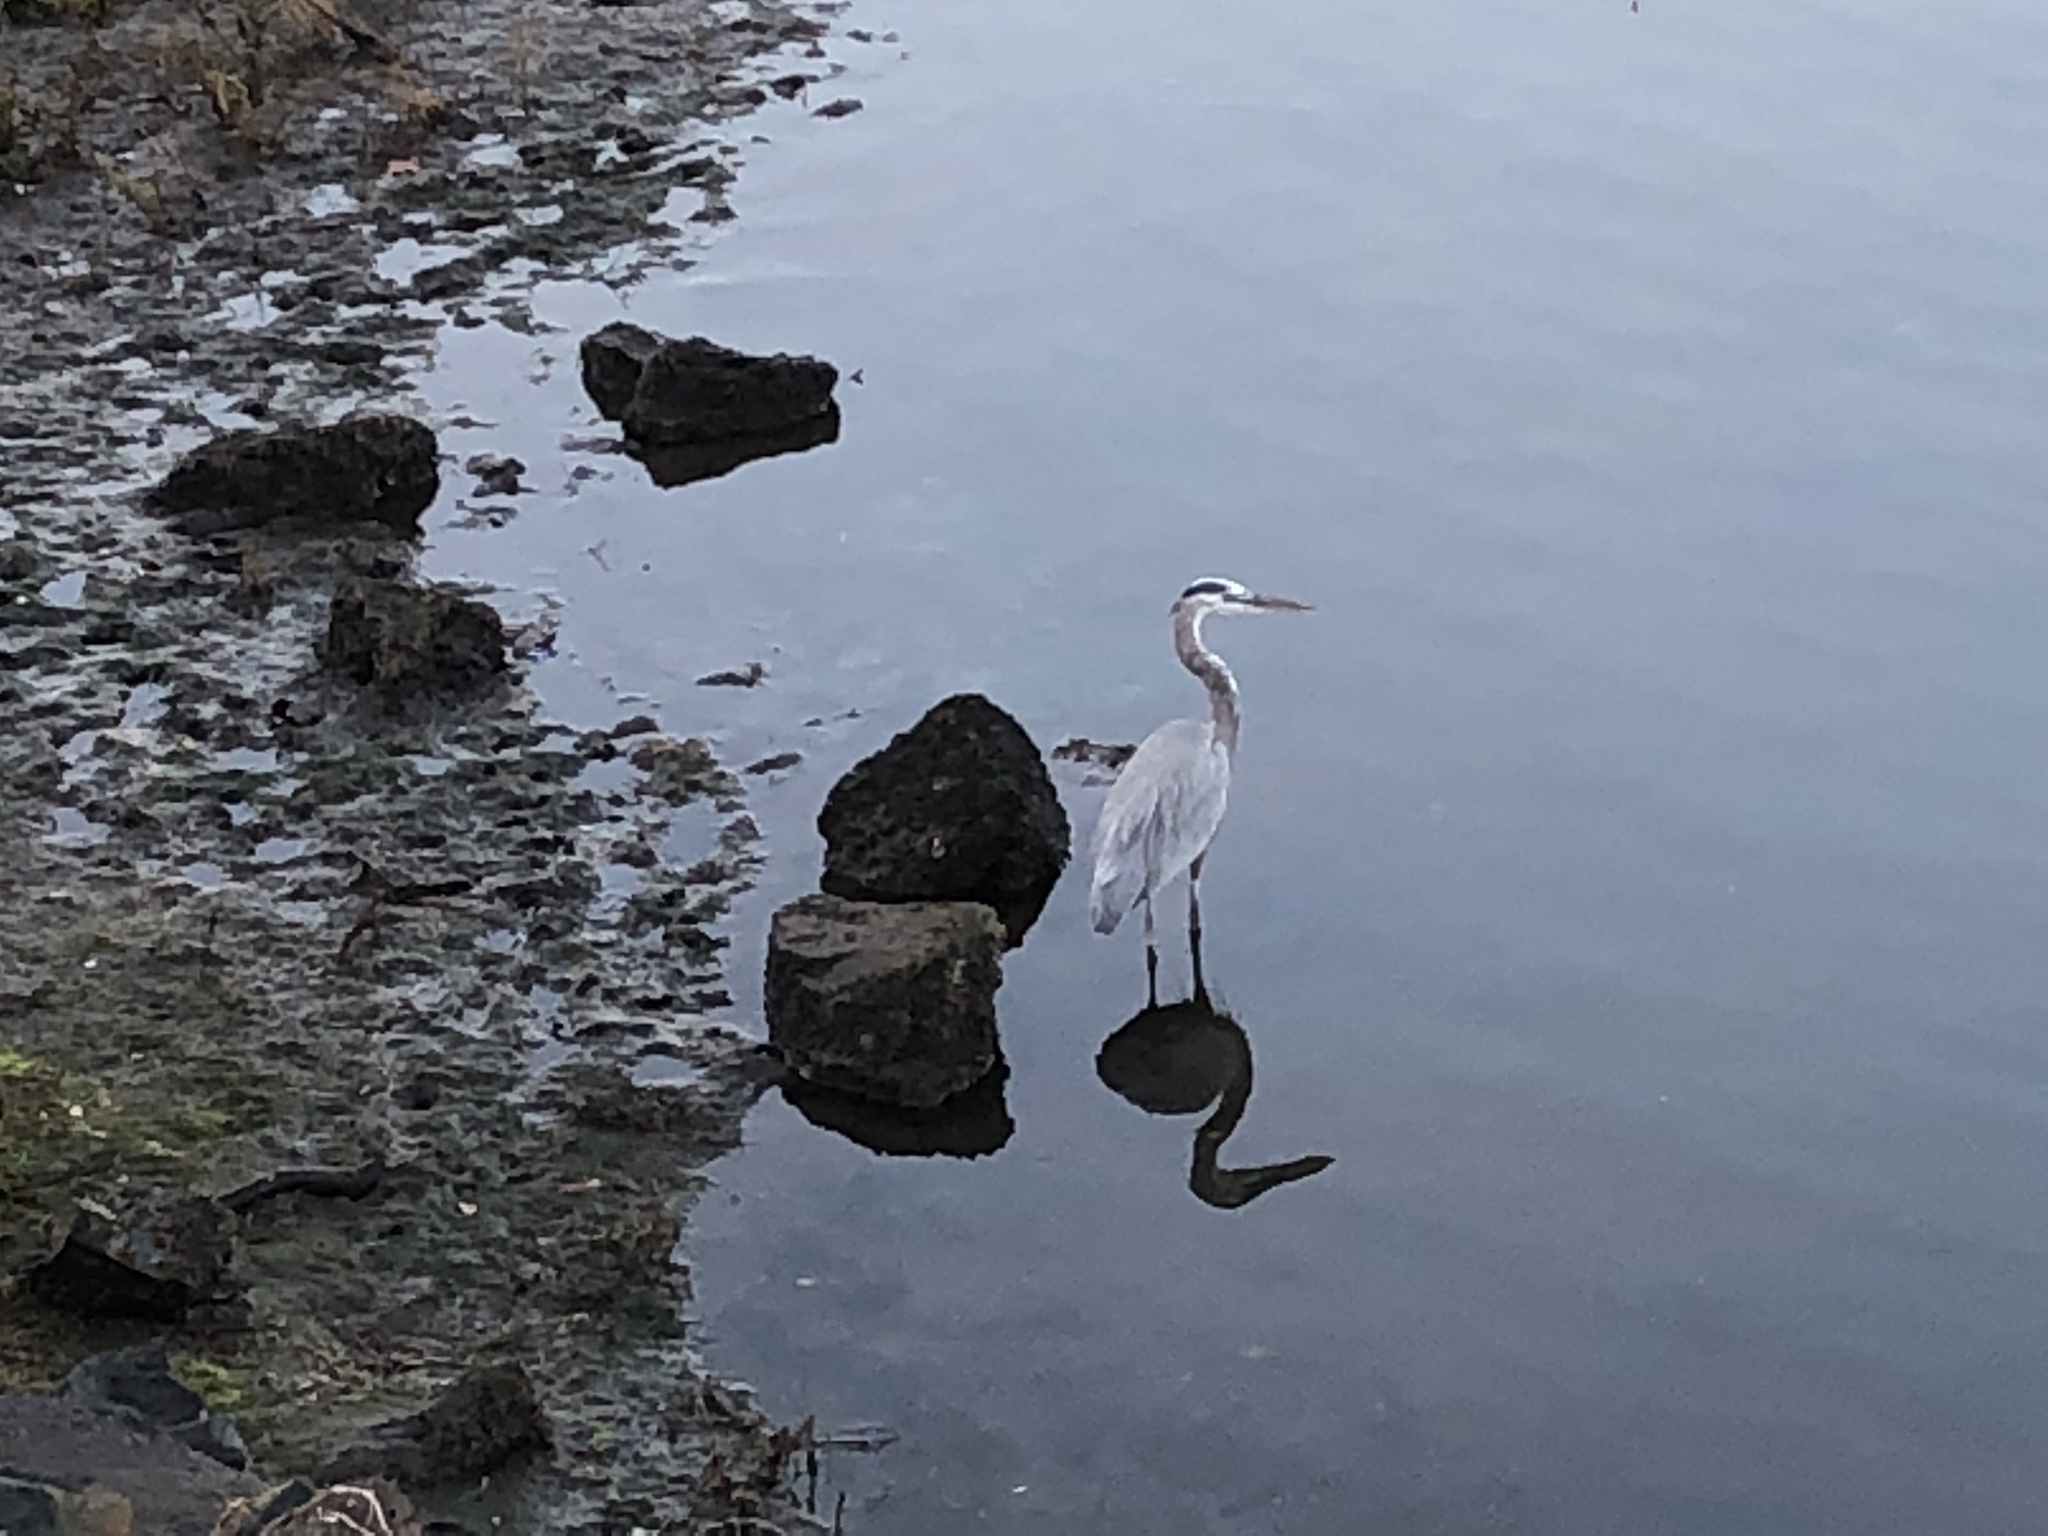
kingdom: Animalia
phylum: Chordata
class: Aves
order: Pelecaniformes
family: Ardeidae
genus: Ardea
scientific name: Ardea herodias
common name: Great blue heron
